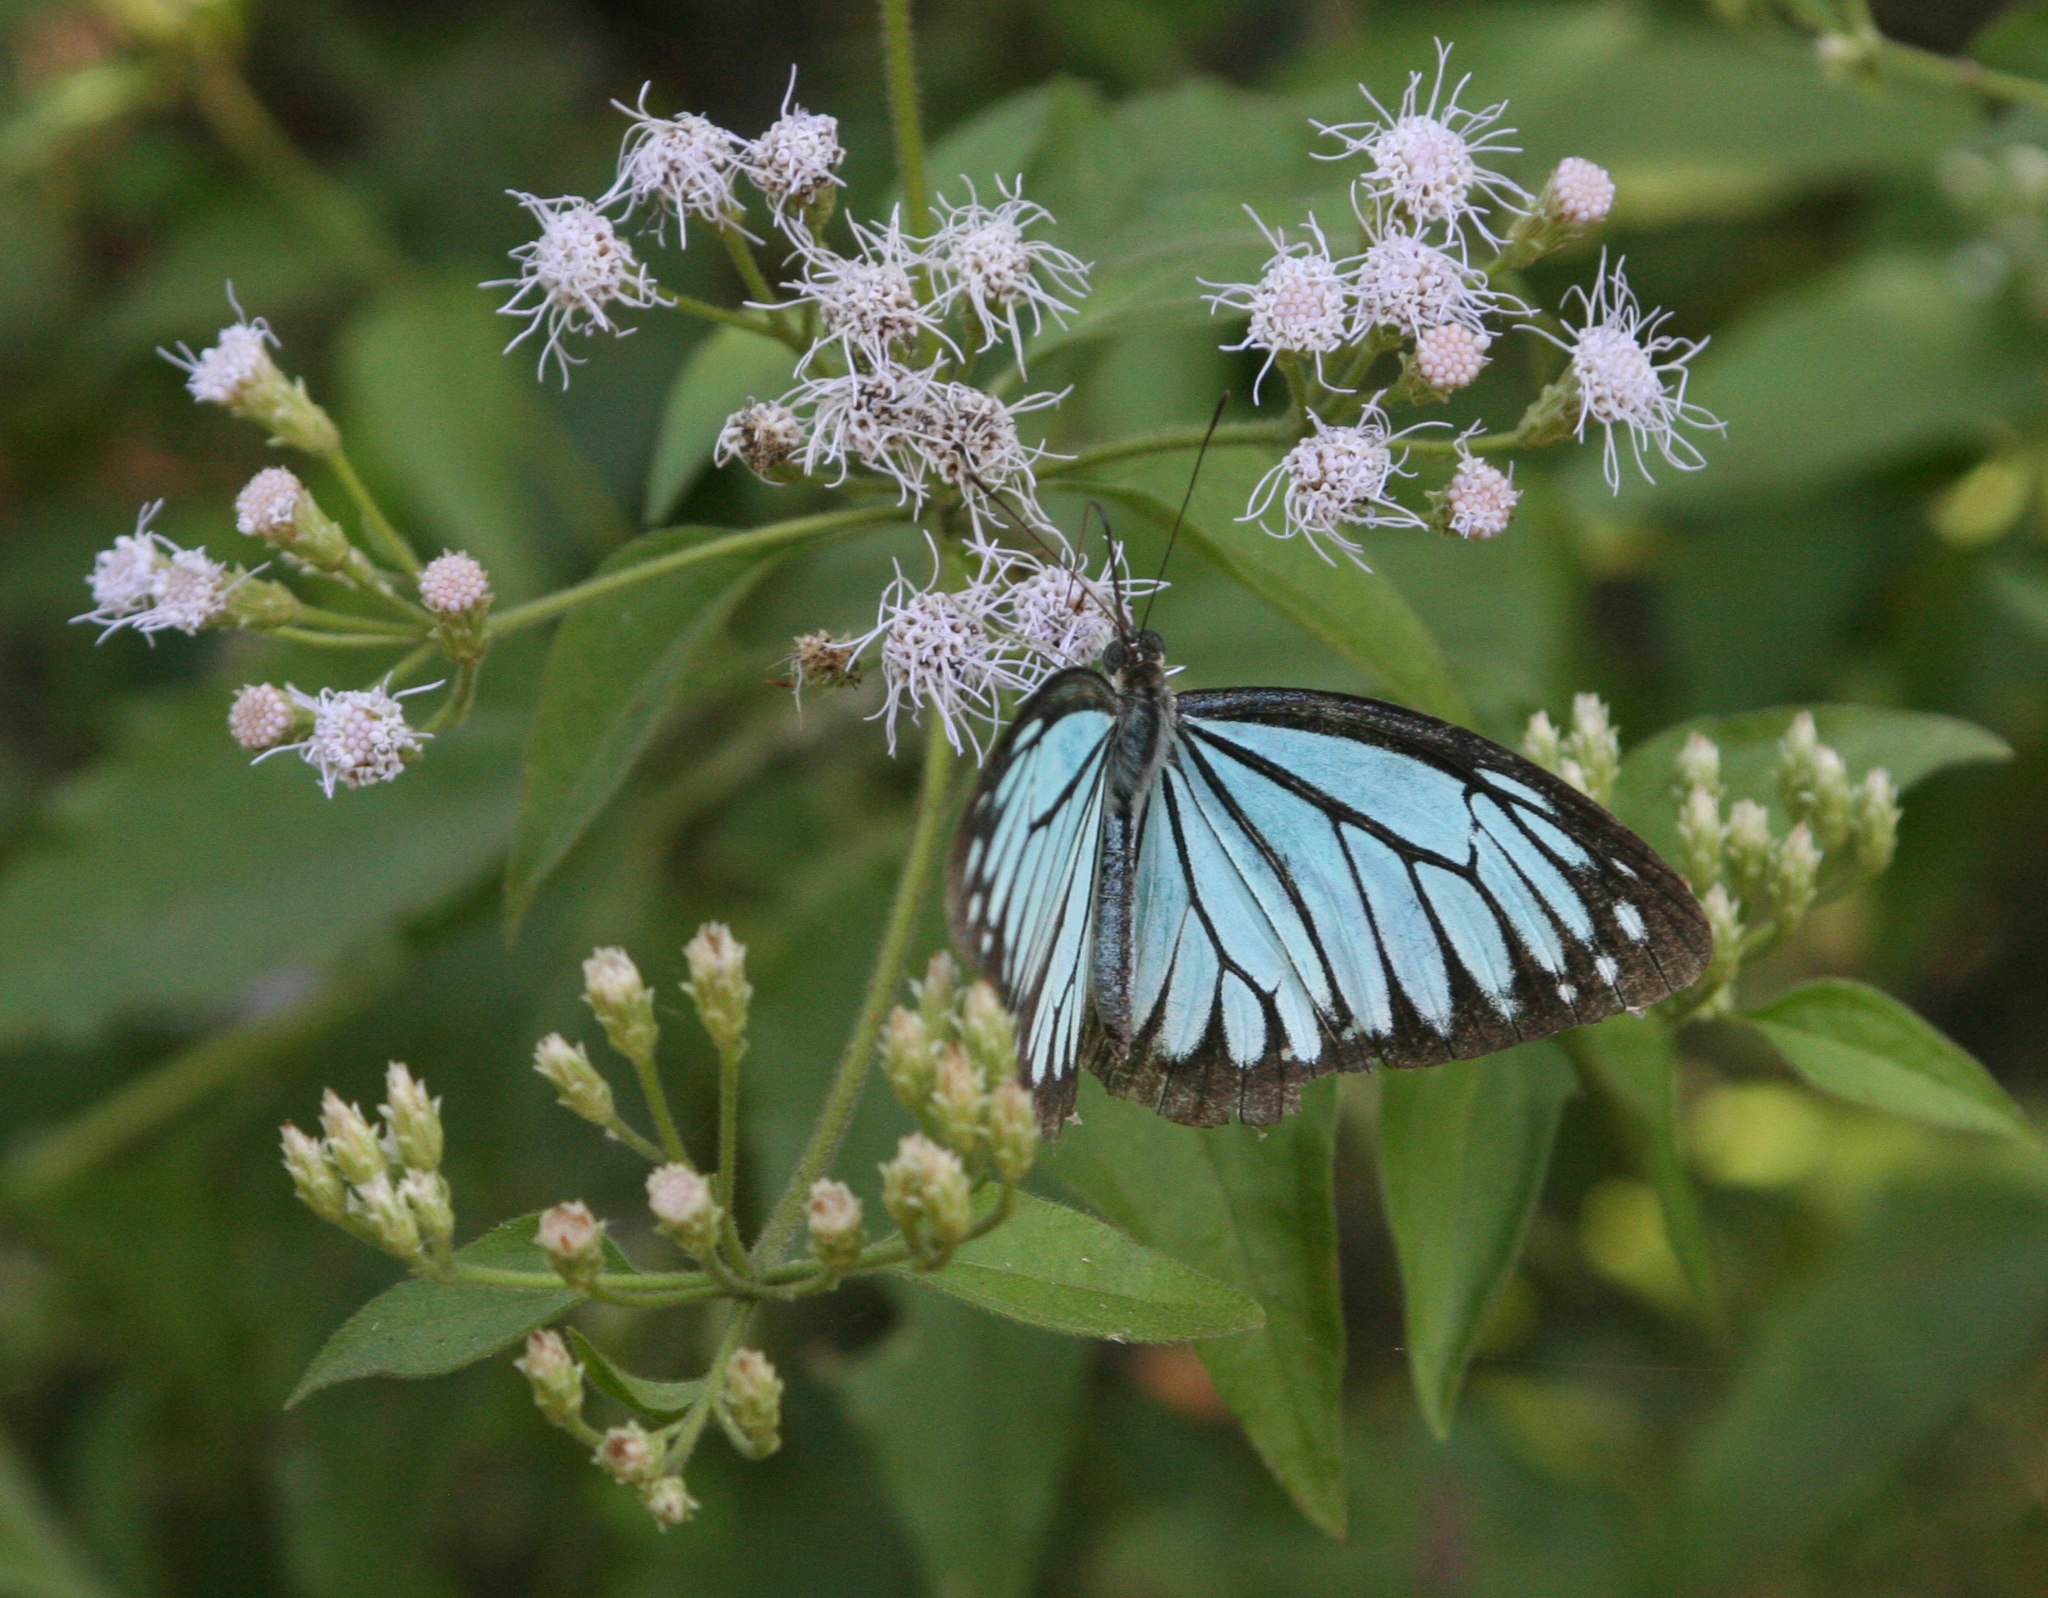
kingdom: Animalia
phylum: Arthropoda
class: Insecta
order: Lepidoptera
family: Pieridae
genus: Pareronia
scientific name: Pareronia hippia
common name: Indian wanderer
